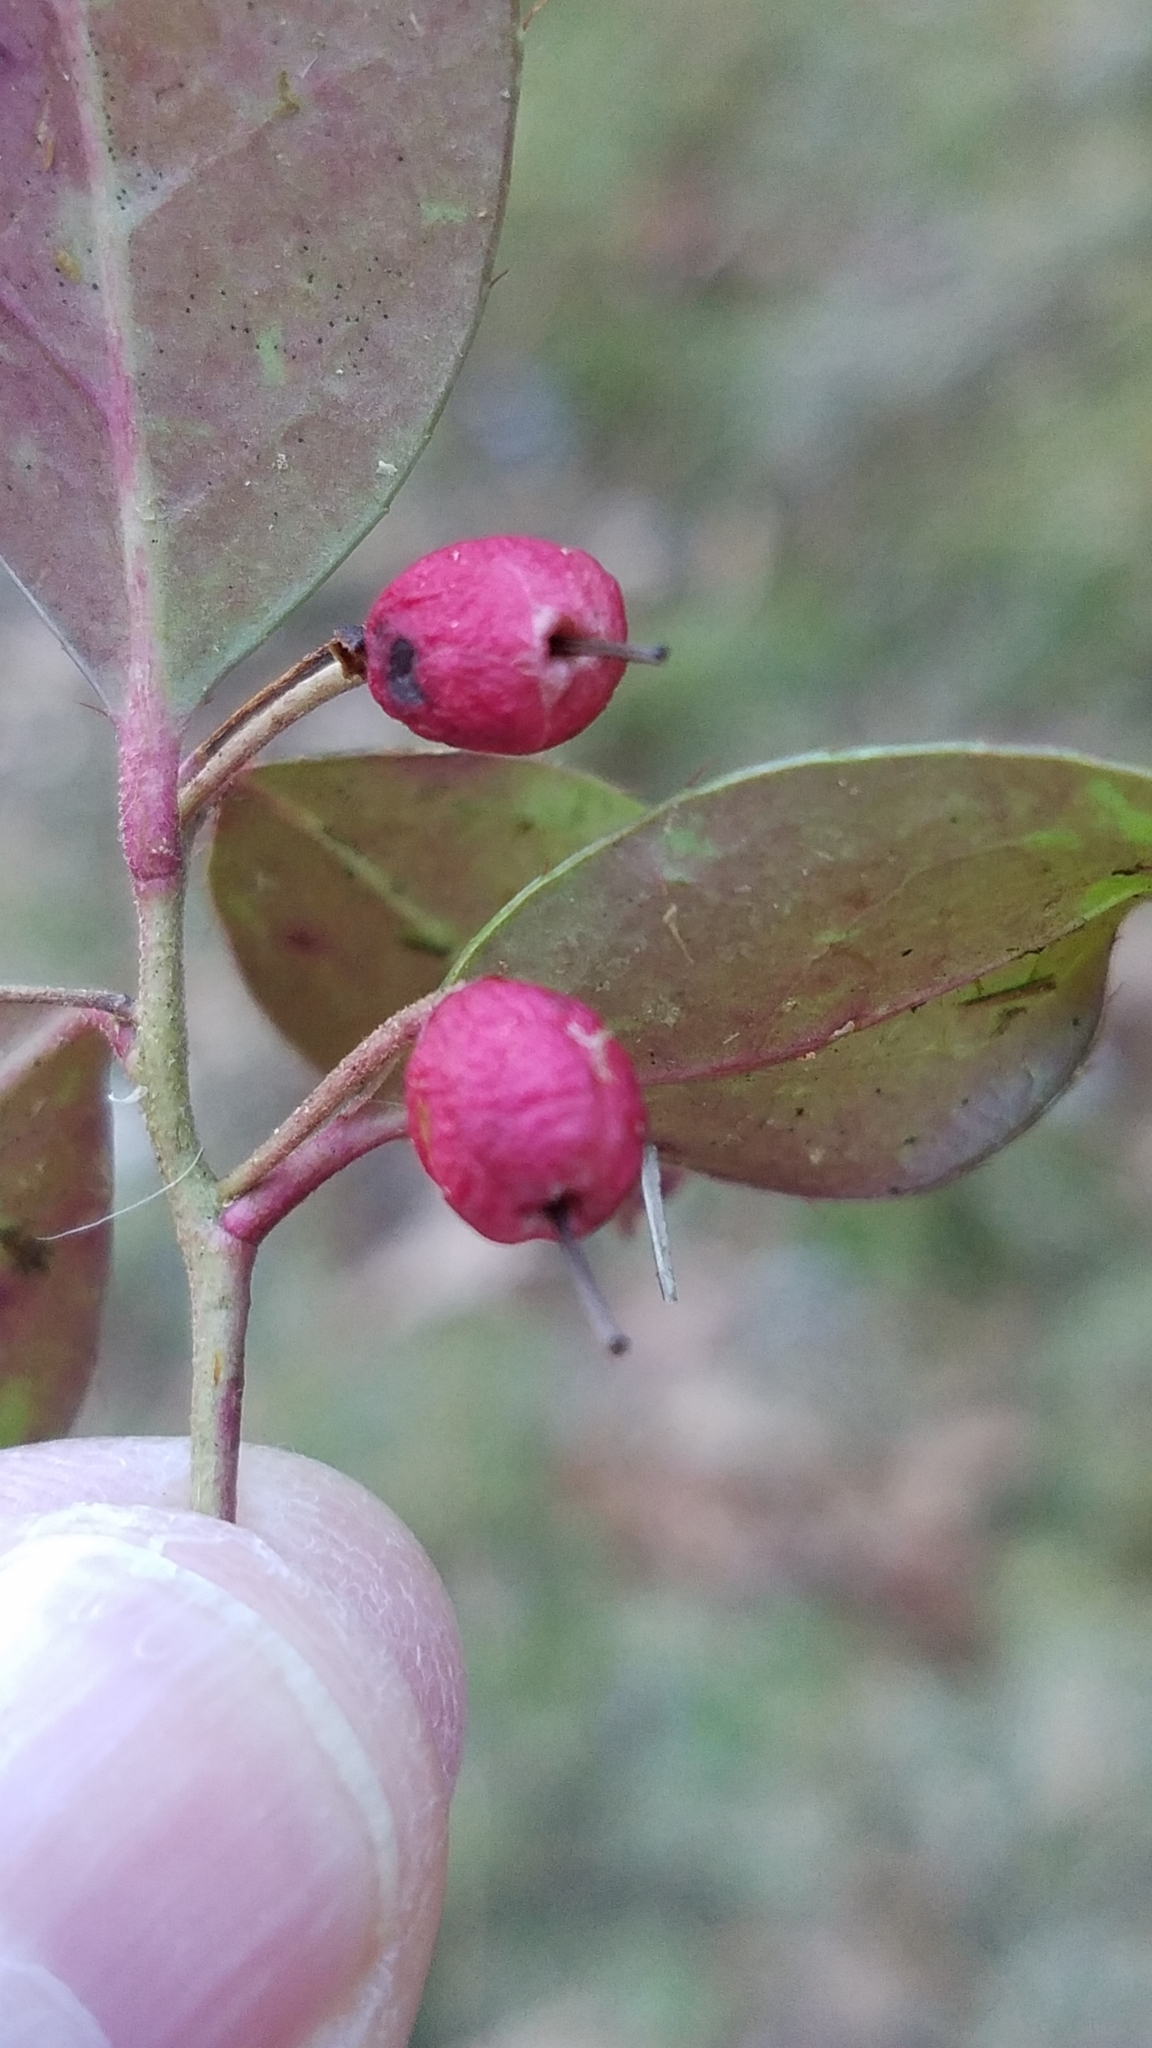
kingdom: Plantae
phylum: Tracheophyta
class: Magnoliopsida
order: Ericales
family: Ericaceae
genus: Gaultheria
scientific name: Gaultheria procumbens
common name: Checkerberry
